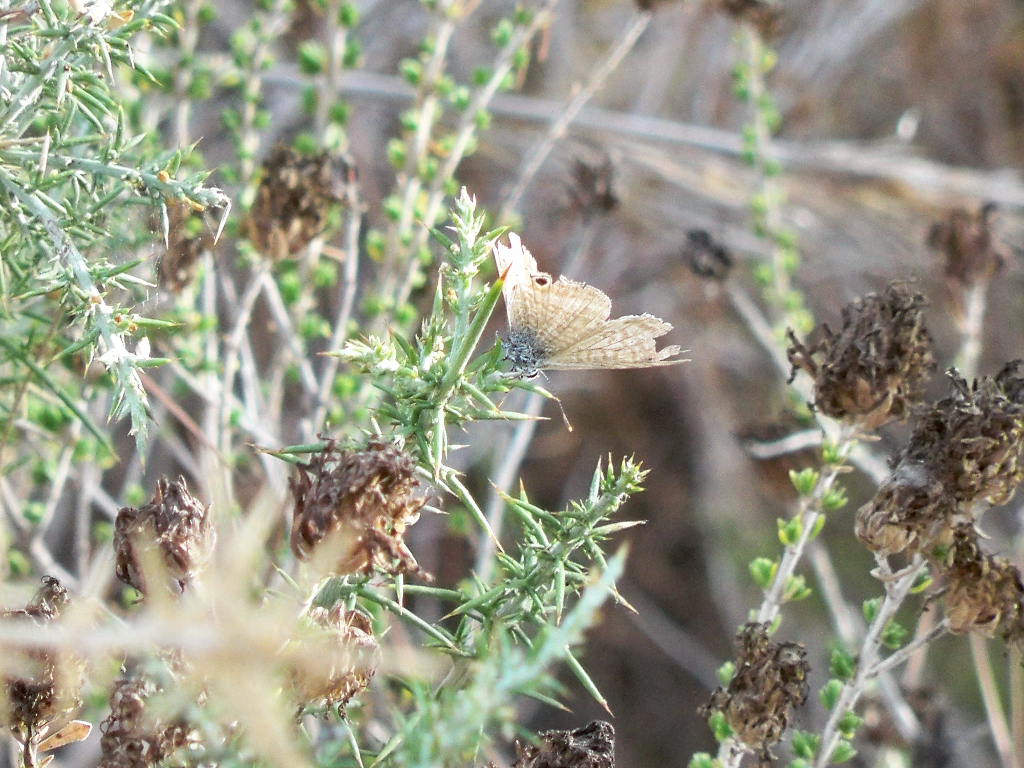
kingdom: Animalia
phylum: Arthropoda
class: Insecta
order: Lepidoptera
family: Lycaenidae
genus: Lampides
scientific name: Lampides boeticus
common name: Long-tailed blue
